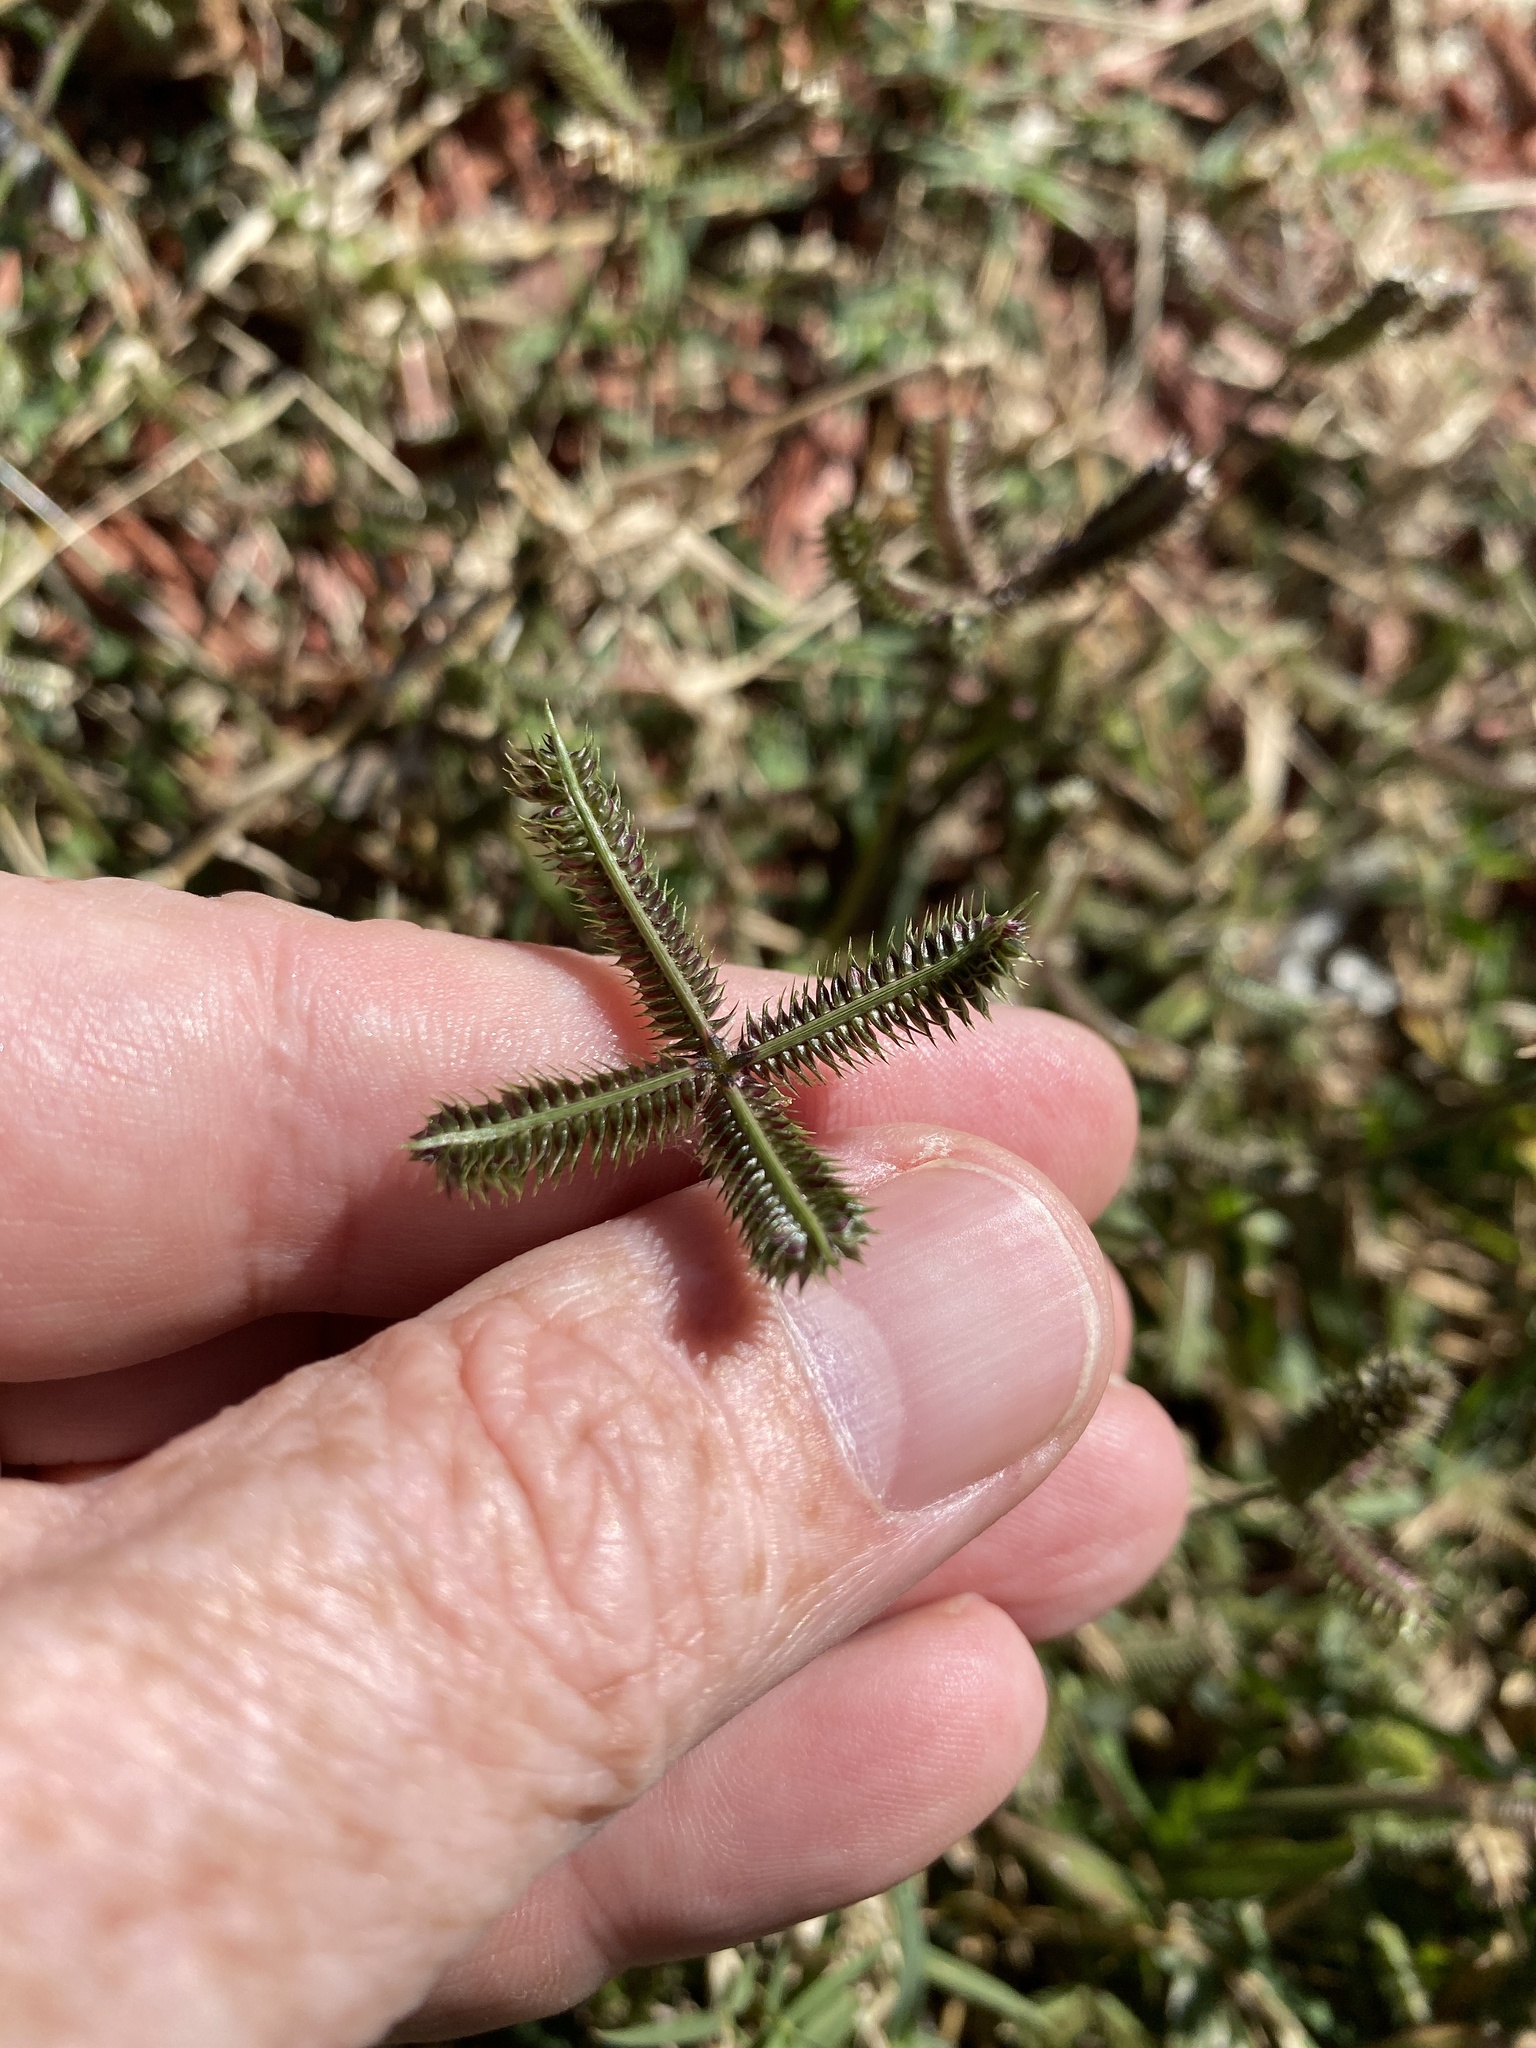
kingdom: Plantae
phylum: Tracheophyta
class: Liliopsida
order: Poales
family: Poaceae
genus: Dactyloctenium
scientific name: Dactyloctenium aegyptium
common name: Egyptian grass
